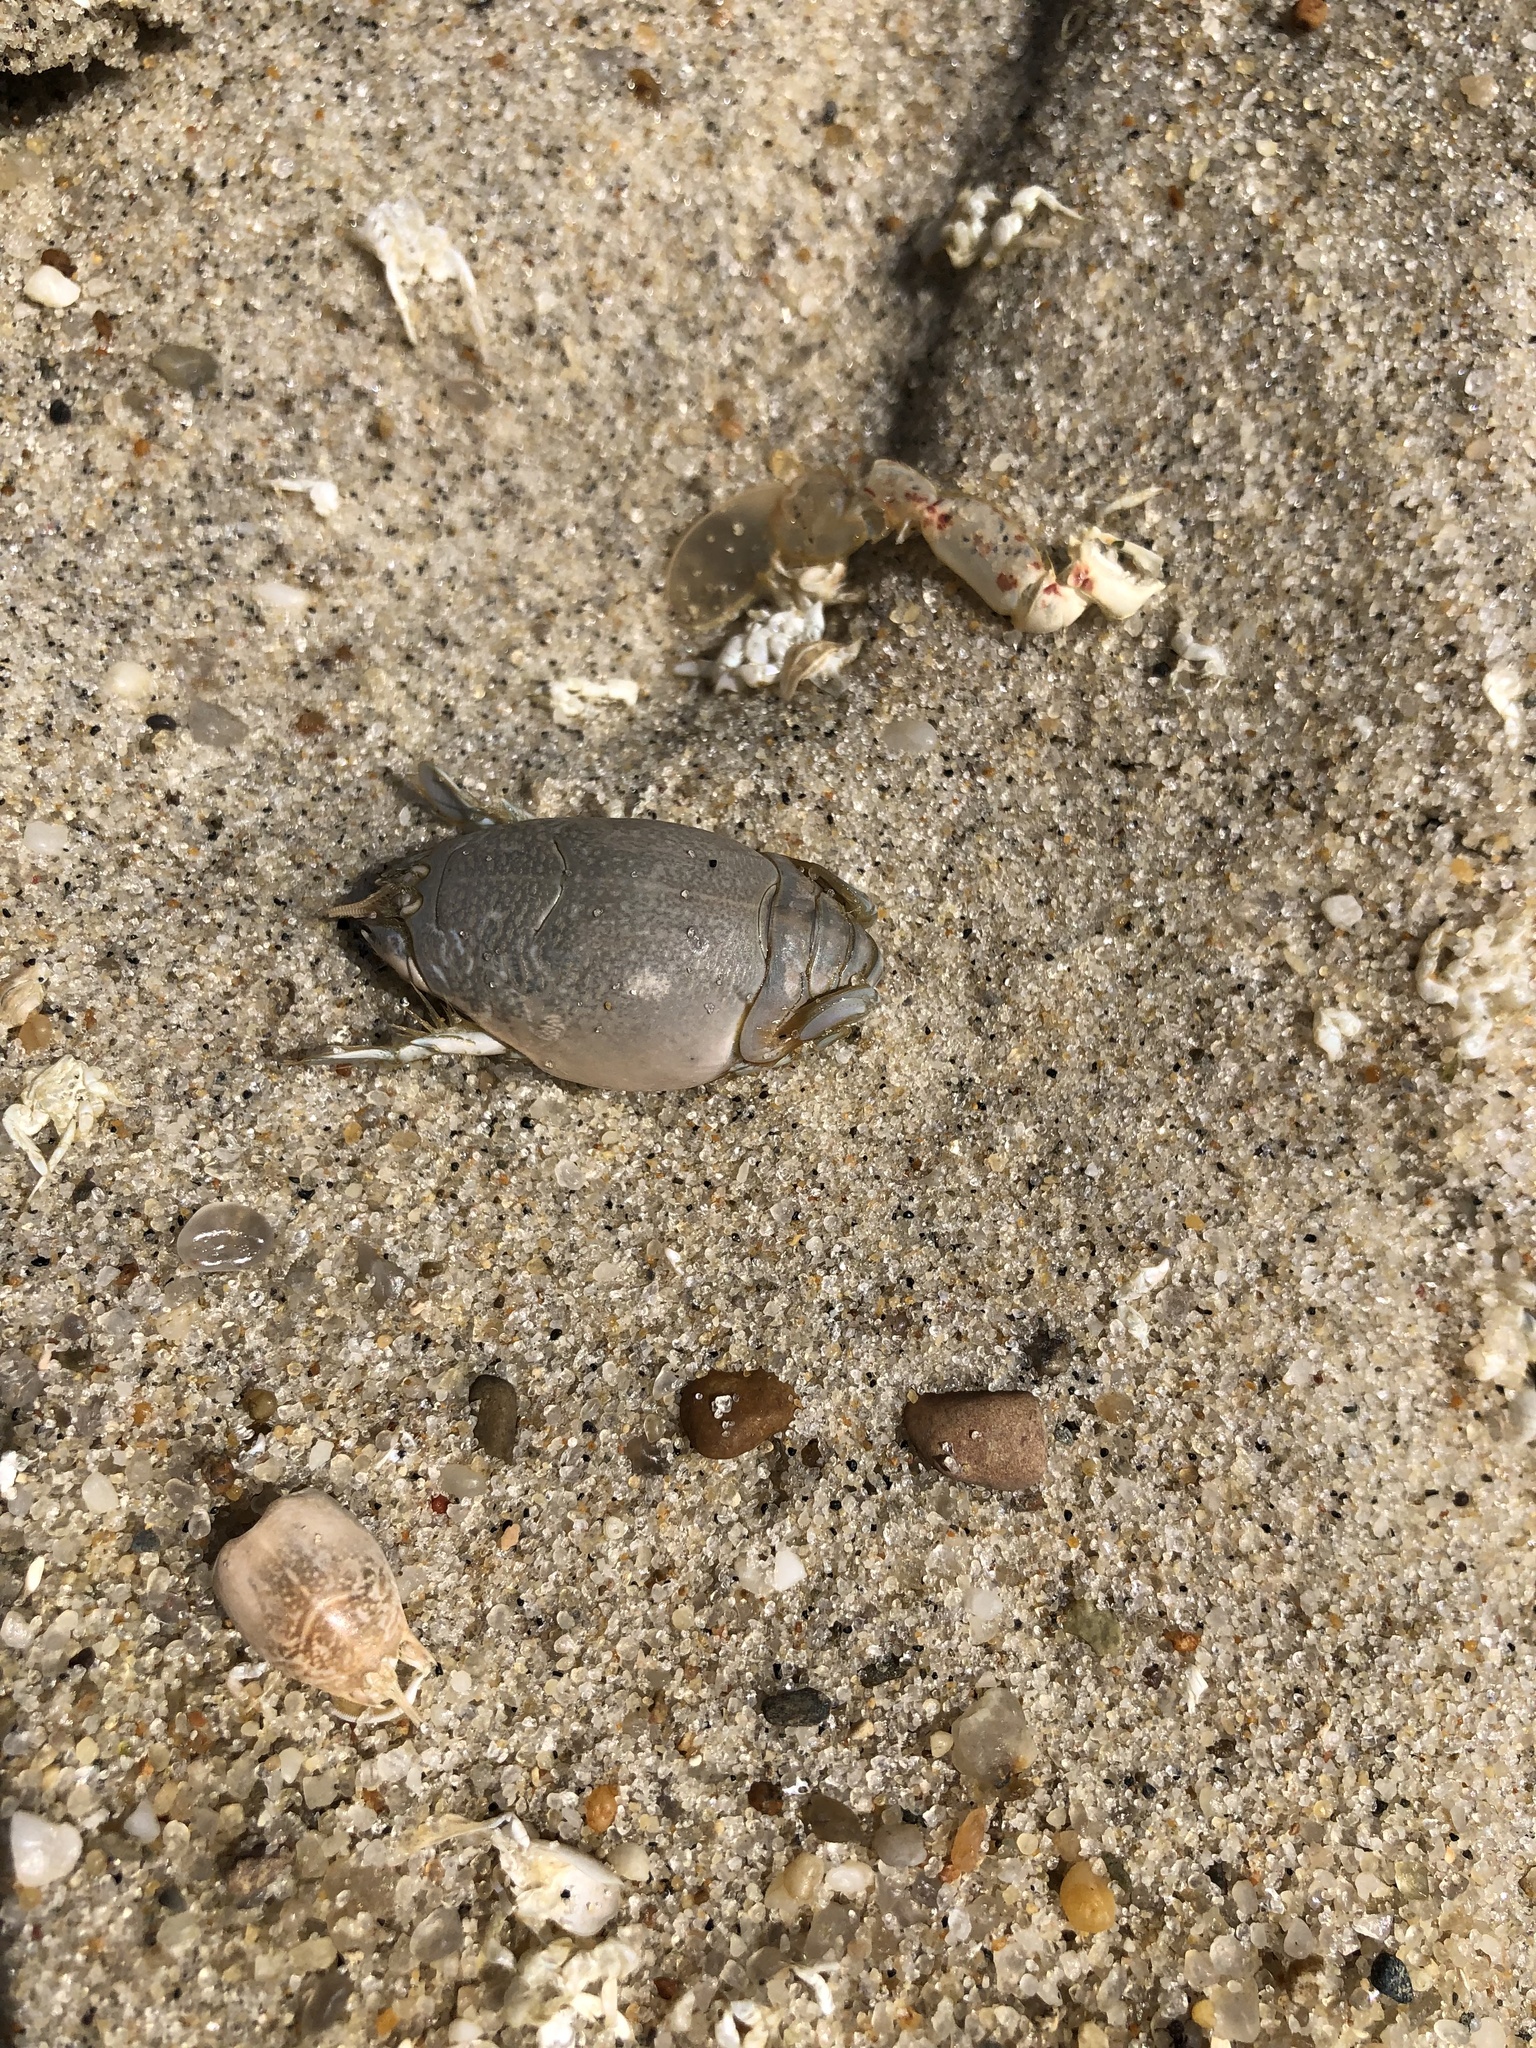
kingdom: Animalia
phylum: Arthropoda
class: Malacostraca
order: Decapoda
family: Hippidae
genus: Emerita
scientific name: Emerita talpoida
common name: Atlantic sand crab
